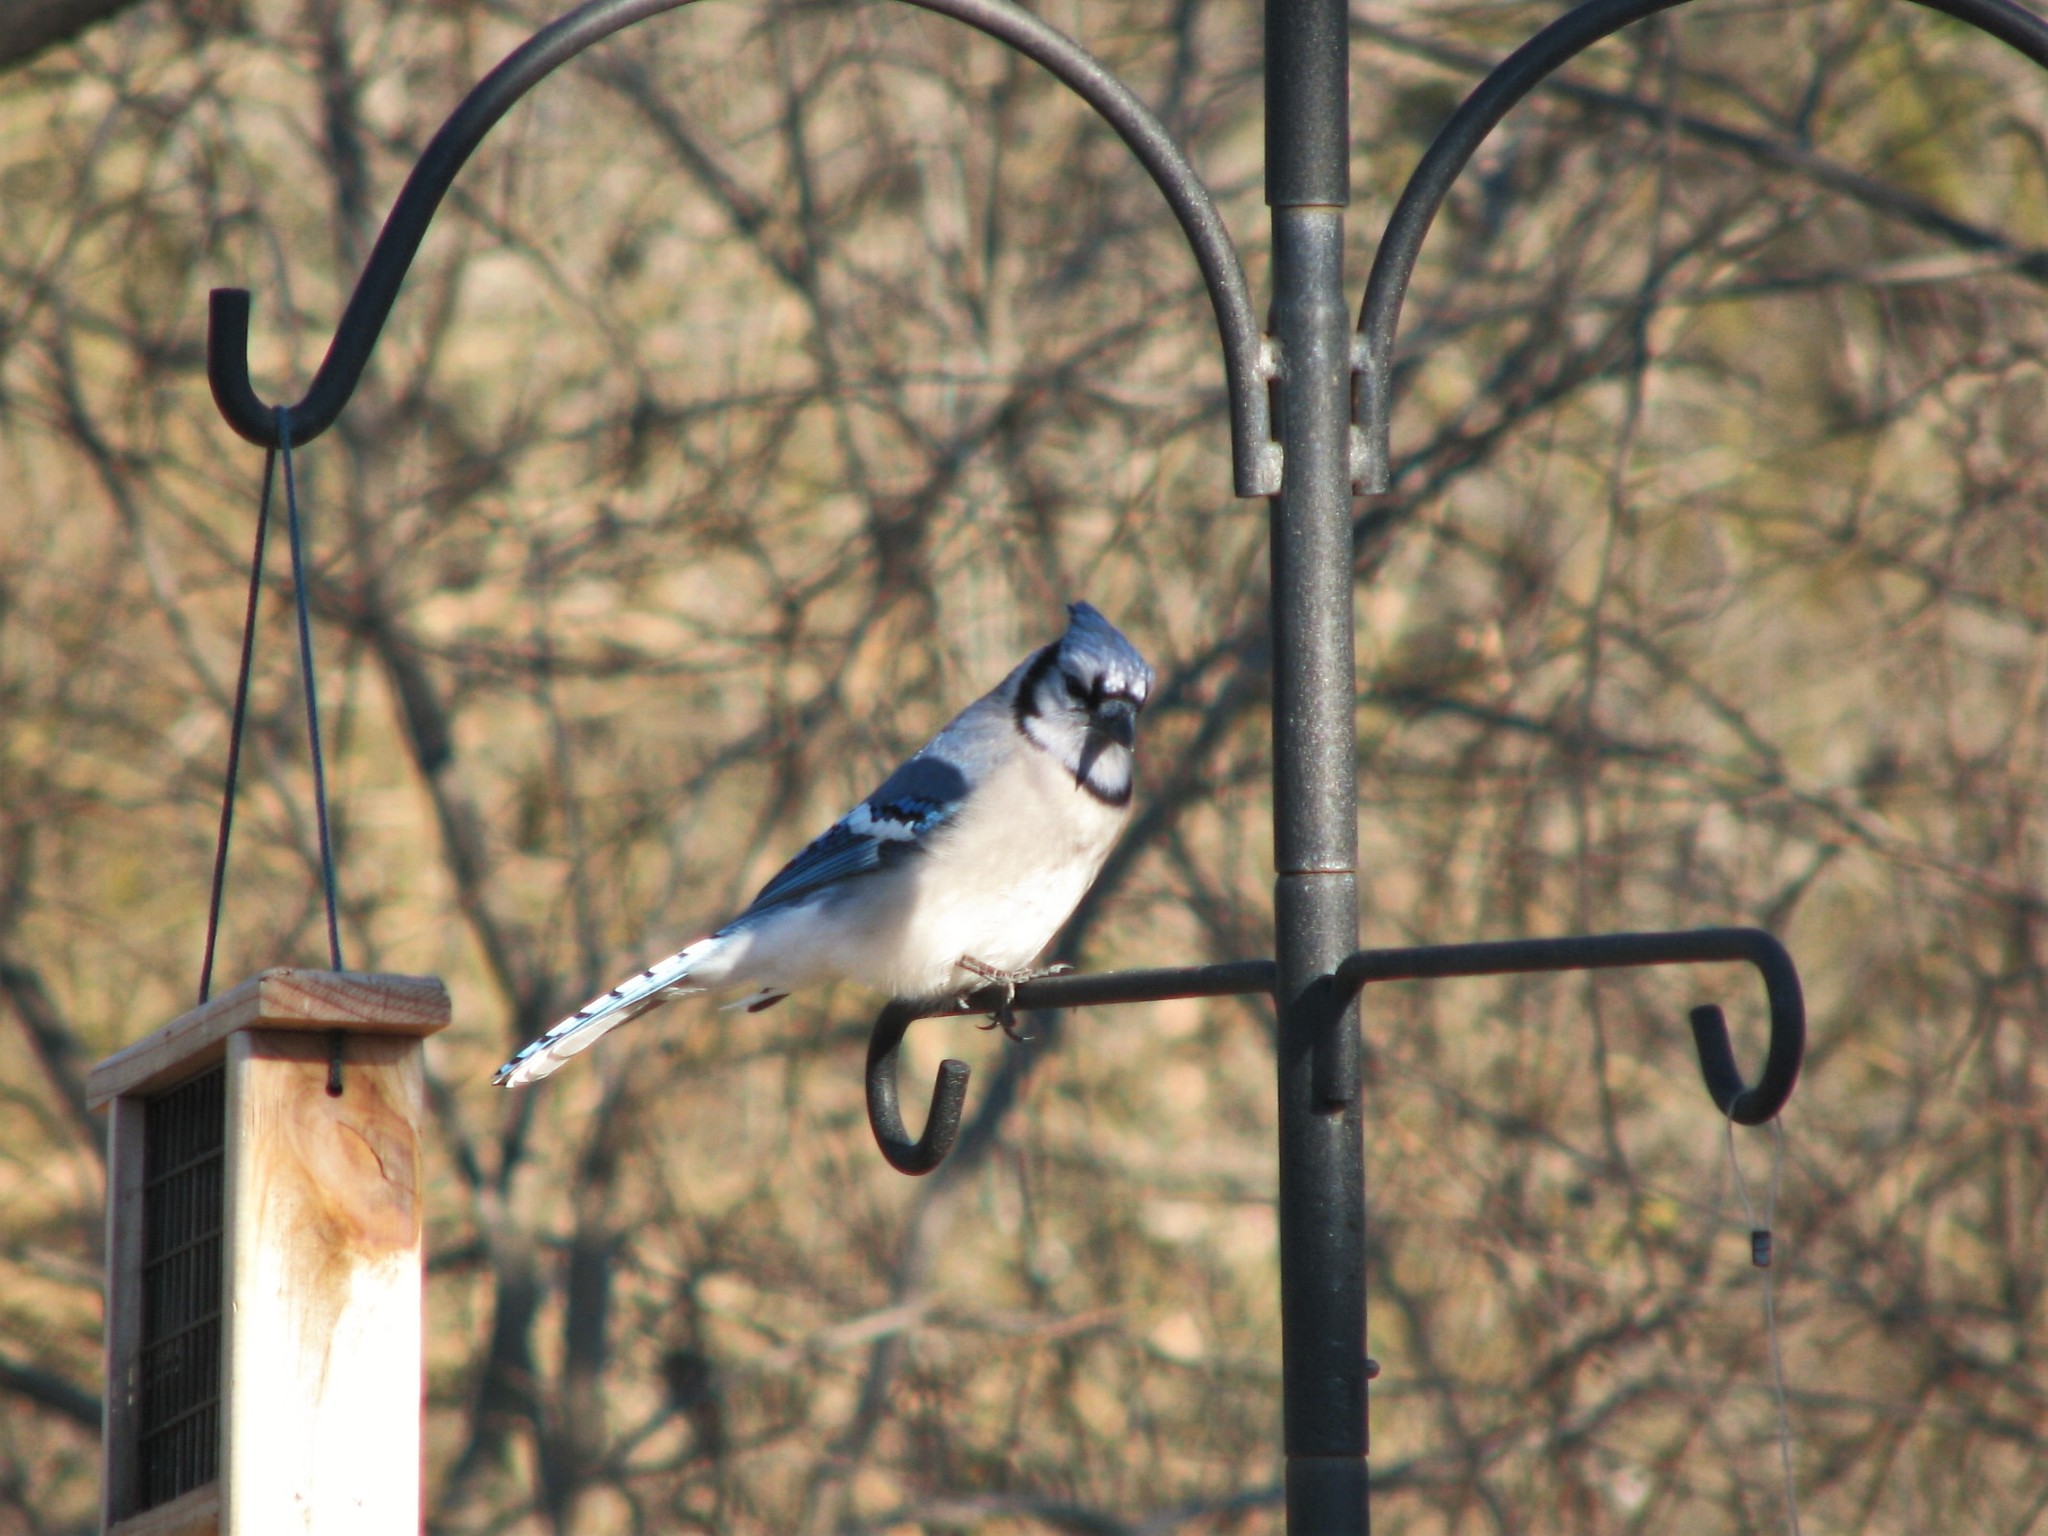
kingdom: Animalia
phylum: Chordata
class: Aves
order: Passeriformes
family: Corvidae
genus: Cyanocitta
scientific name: Cyanocitta cristata
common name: Blue jay
